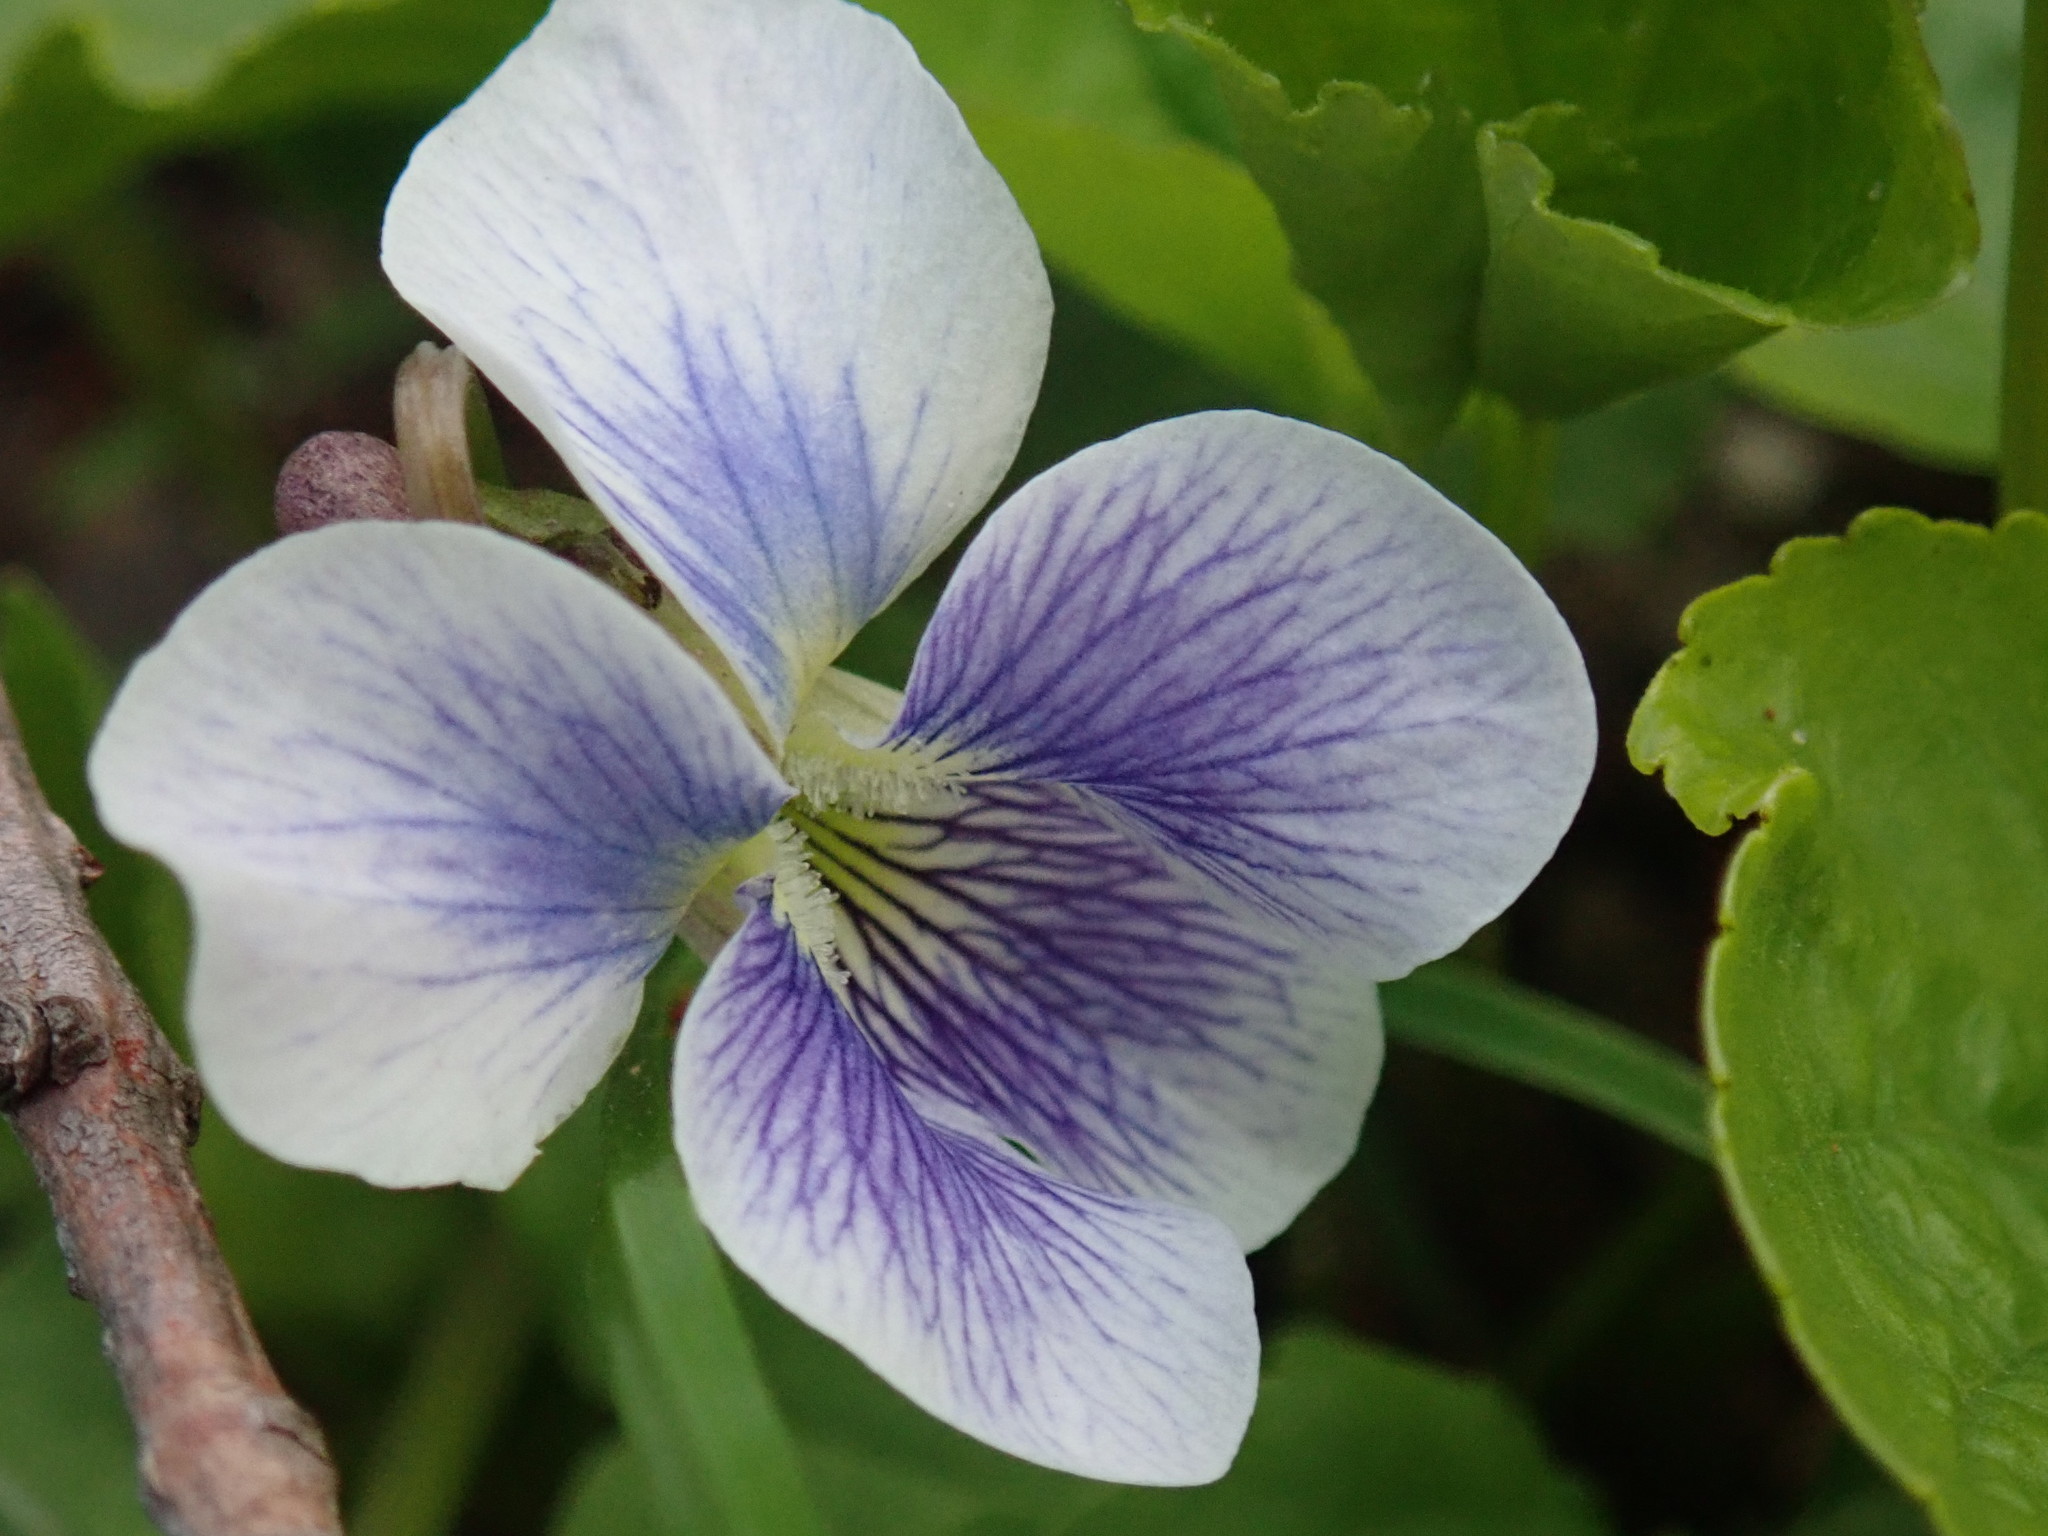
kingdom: Plantae
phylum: Tracheophyta
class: Magnoliopsida
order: Malpighiales
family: Violaceae
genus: Viola
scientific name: Viola sororia
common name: Dooryard violet
